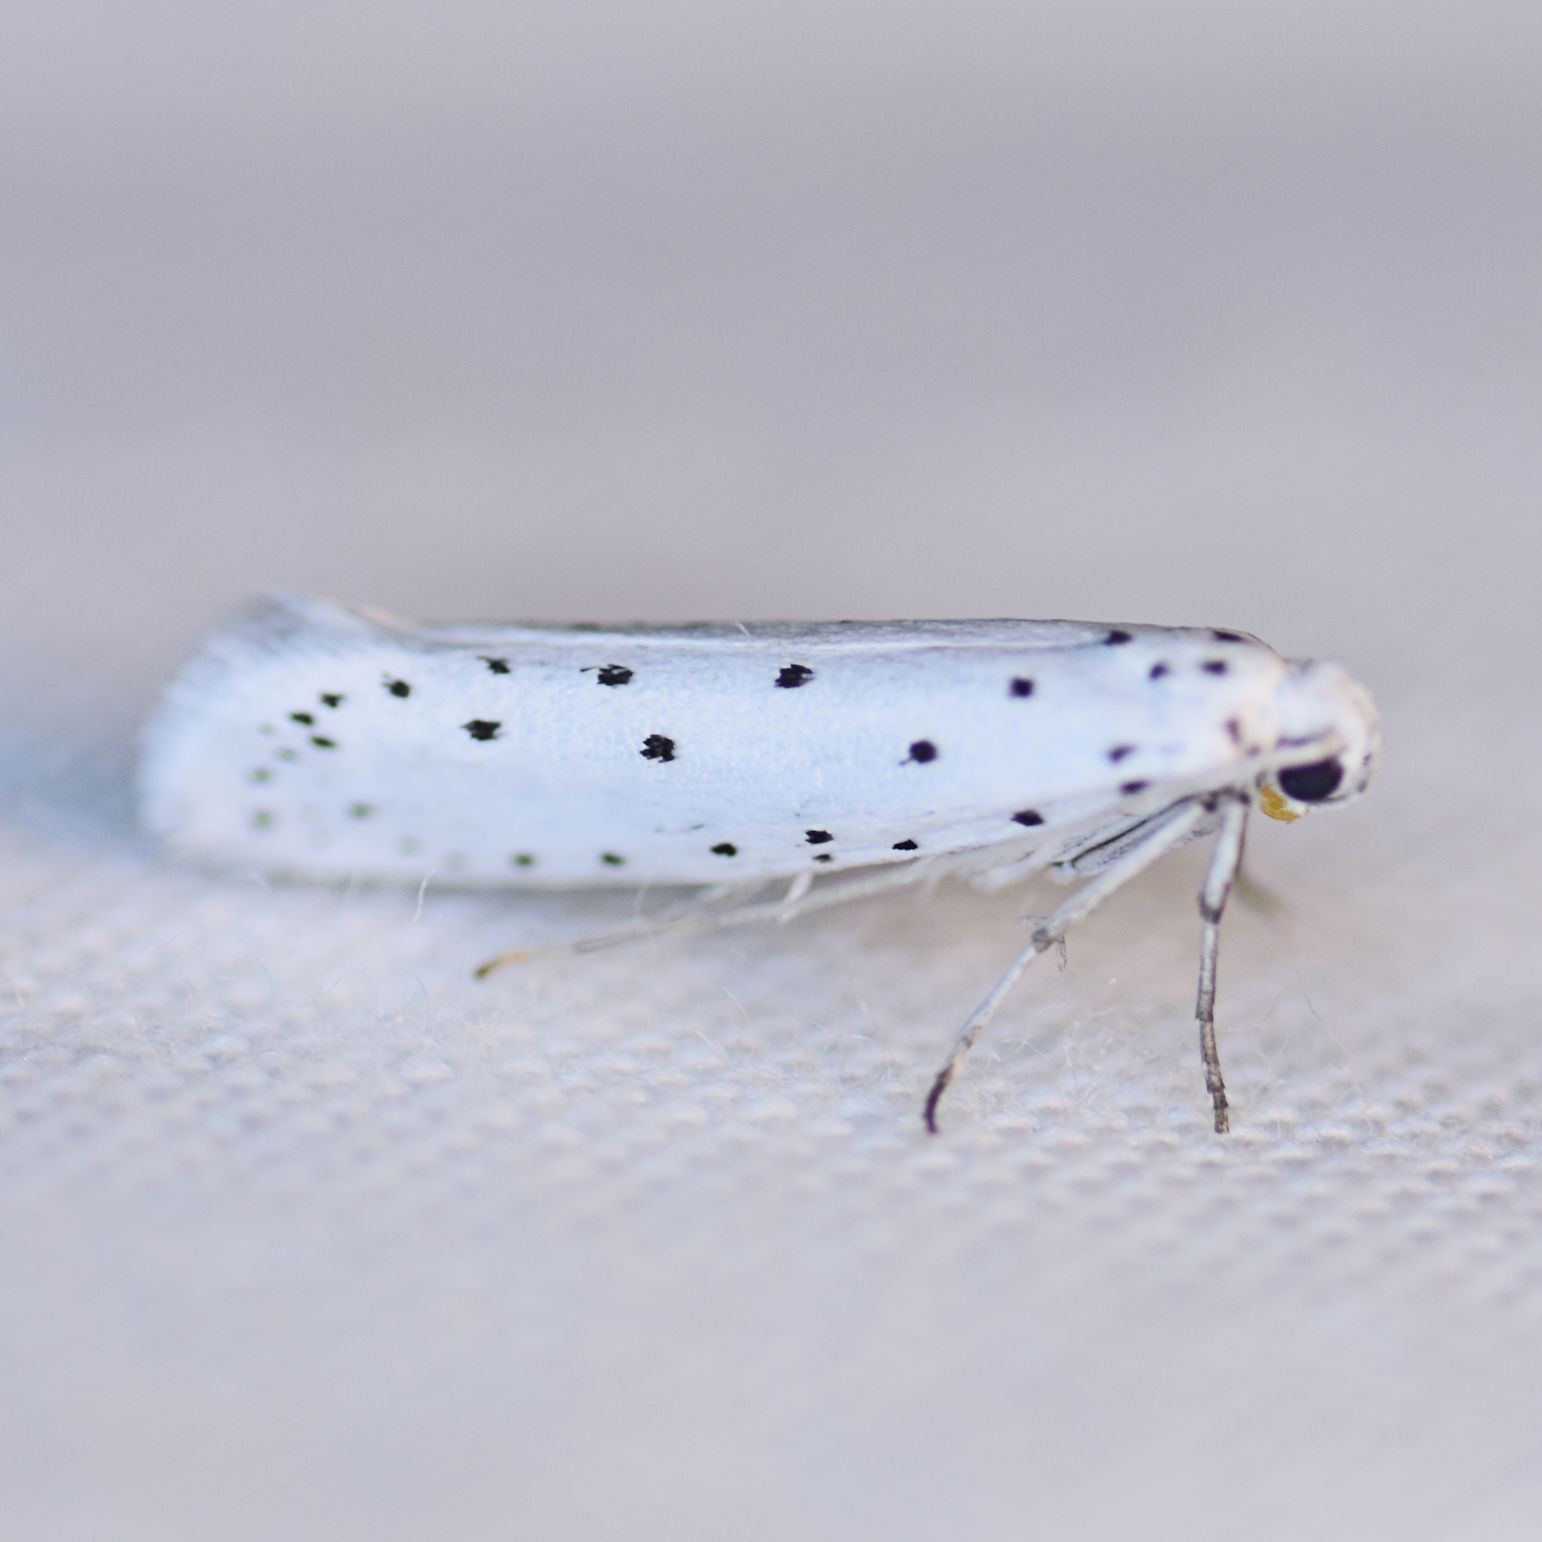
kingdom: Animalia
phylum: Arthropoda
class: Insecta
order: Lepidoptera
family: Yponomeutidae
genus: Yponomeuta
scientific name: Yponomeuta cagnagellus
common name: Spindle ermine
